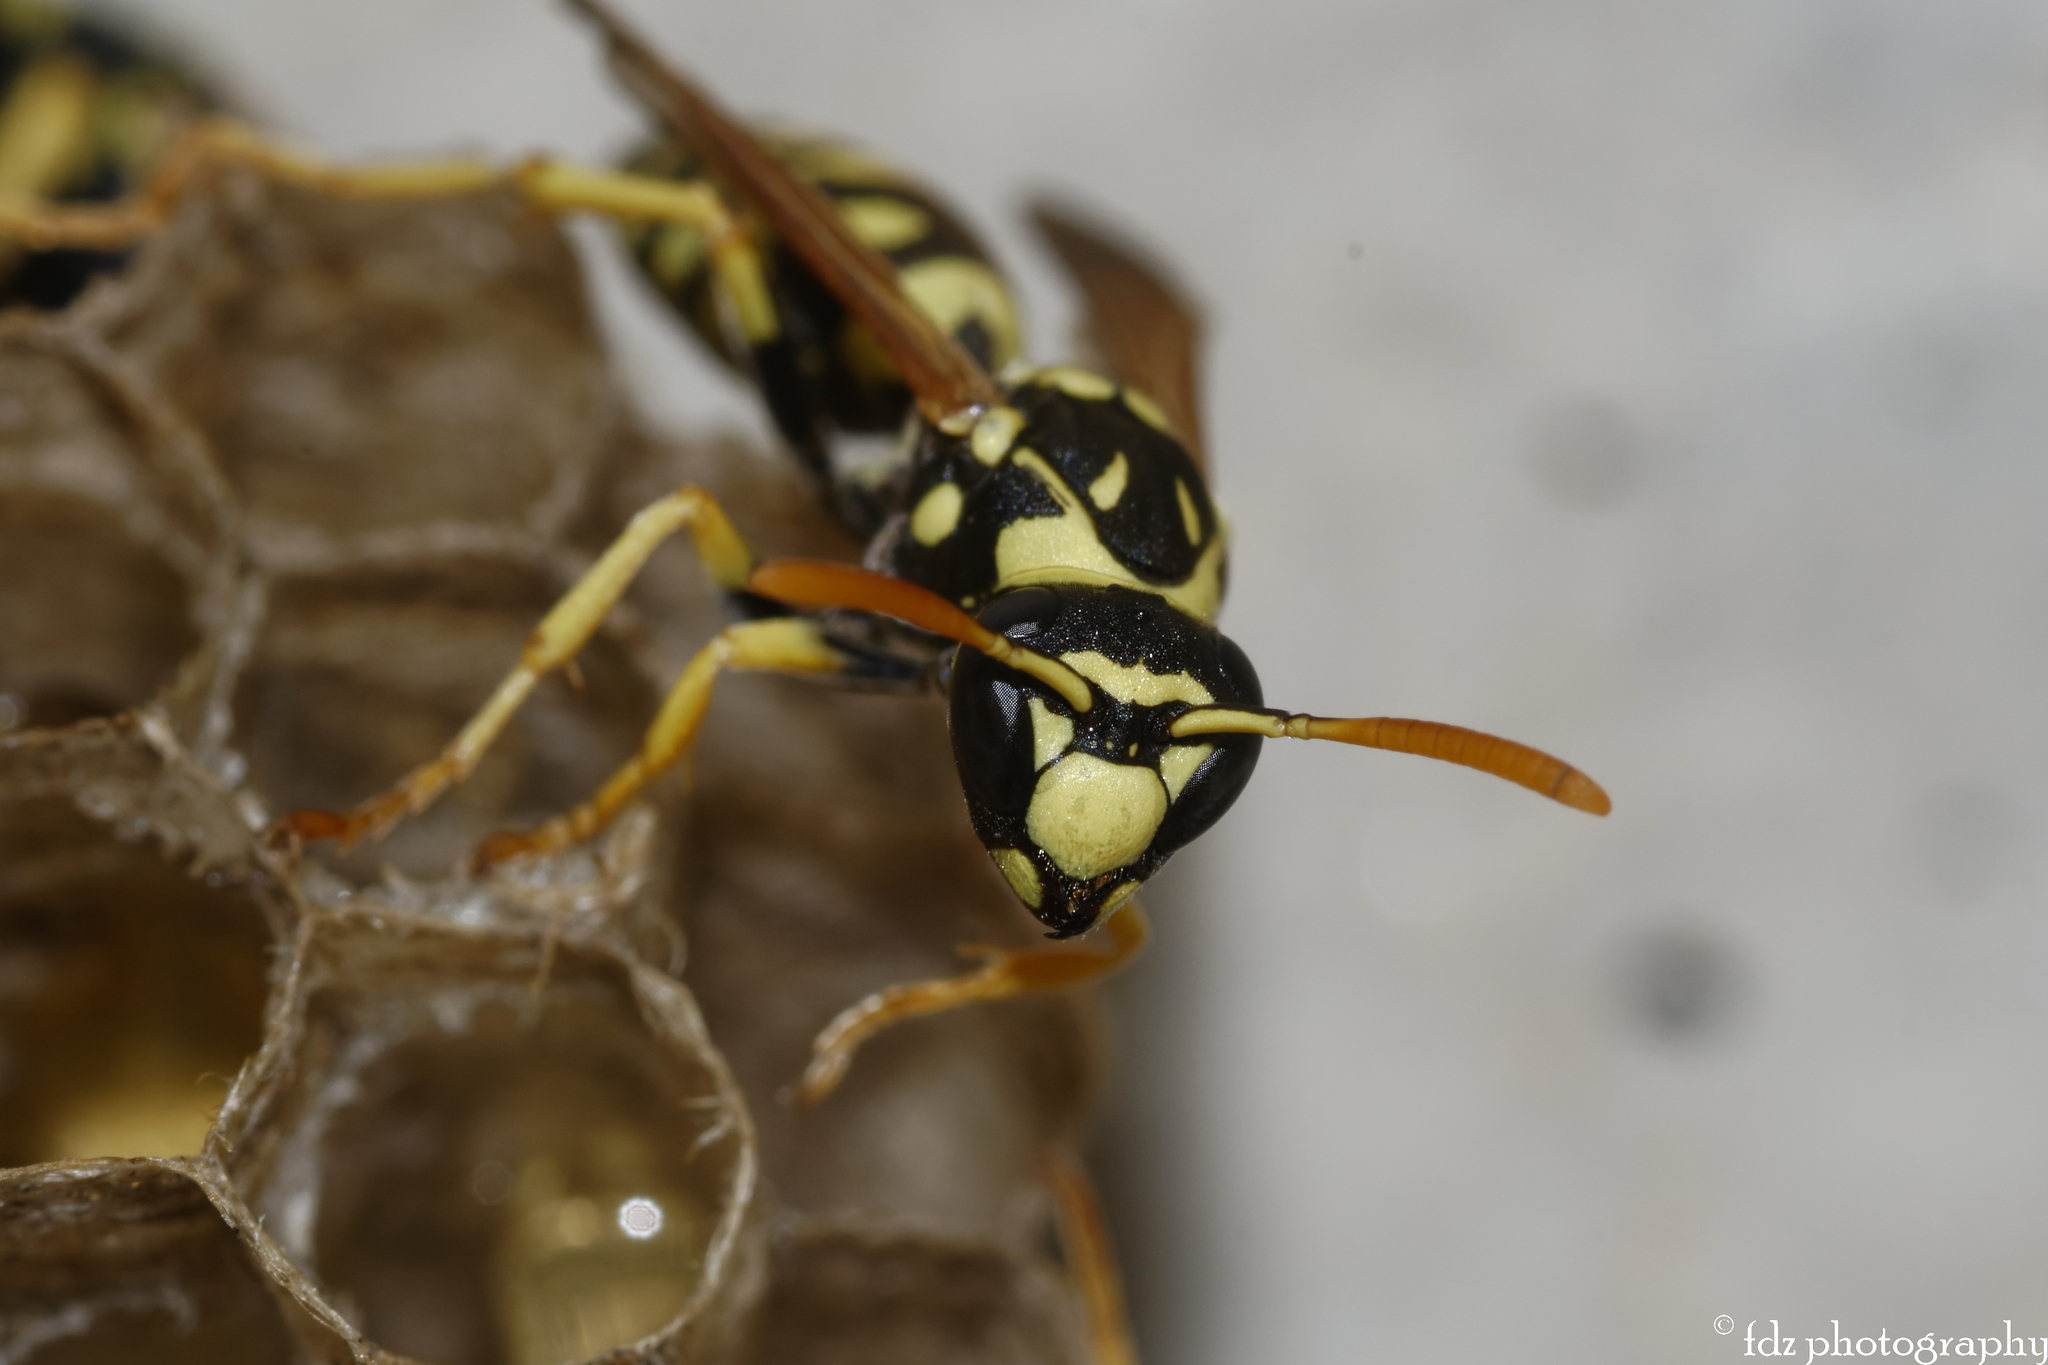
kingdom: Animalia
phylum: Arthropoda
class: Insecta
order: Hymenoptera
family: Eumenidae
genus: Polistes
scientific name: Polistes gallicus
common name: Paper wasp
